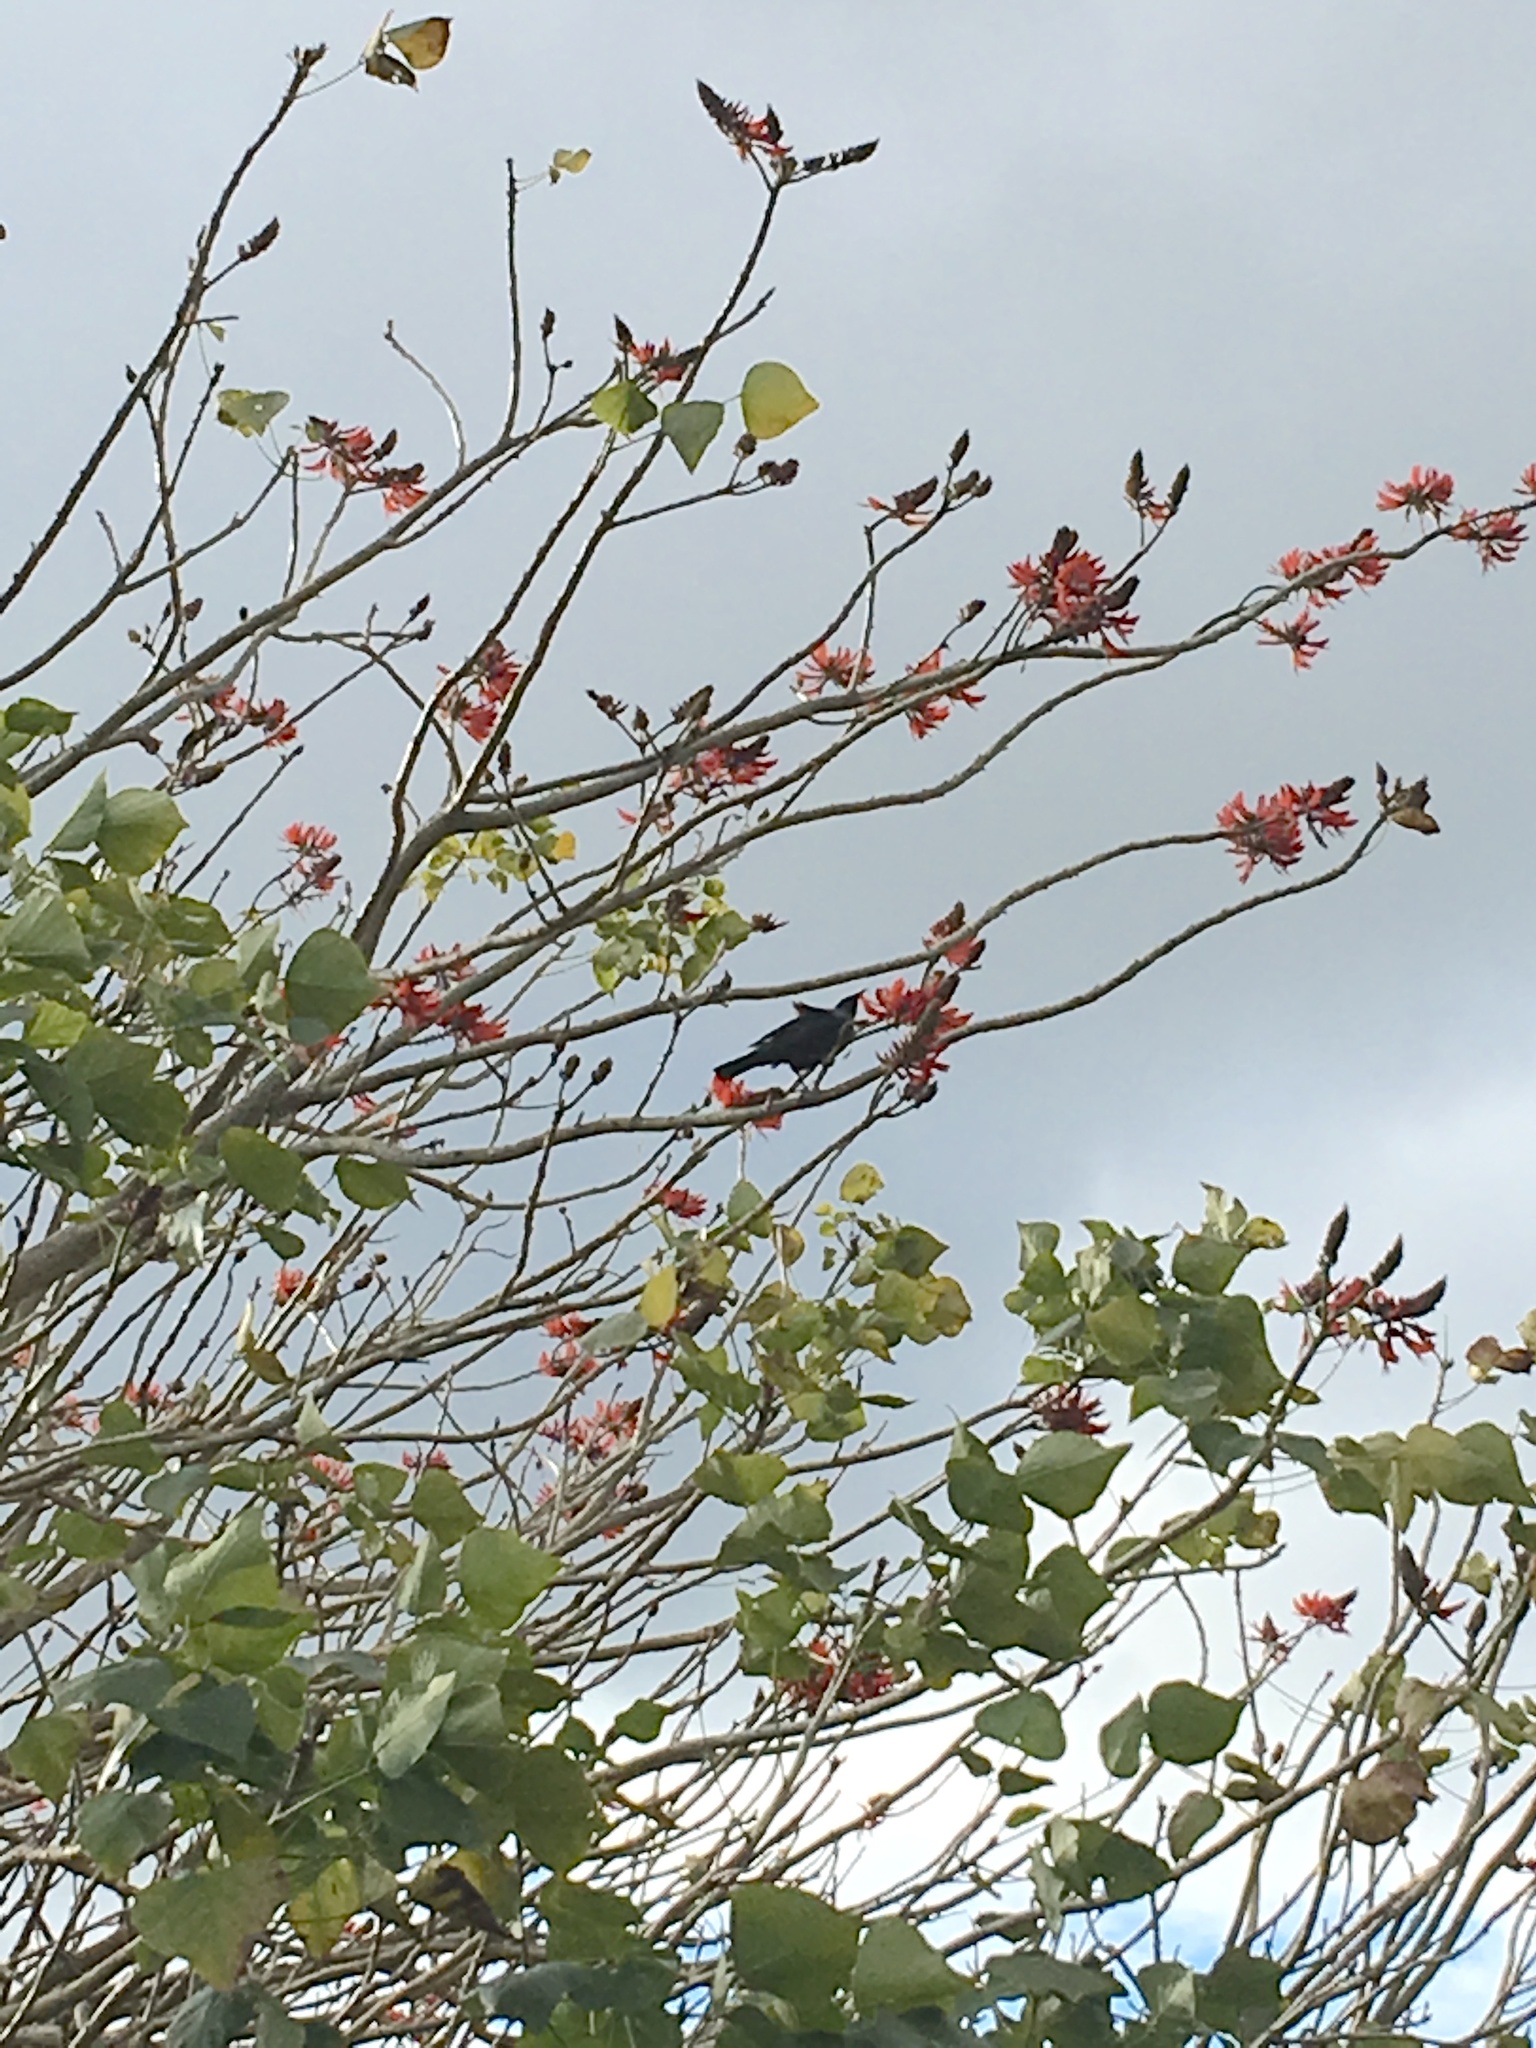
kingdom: Animalia
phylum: Chordata
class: Aves
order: Passeriformes
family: Meliphagidae
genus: Prosthemadera
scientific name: Prosthemadera novaeseelandiae
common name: Tui
